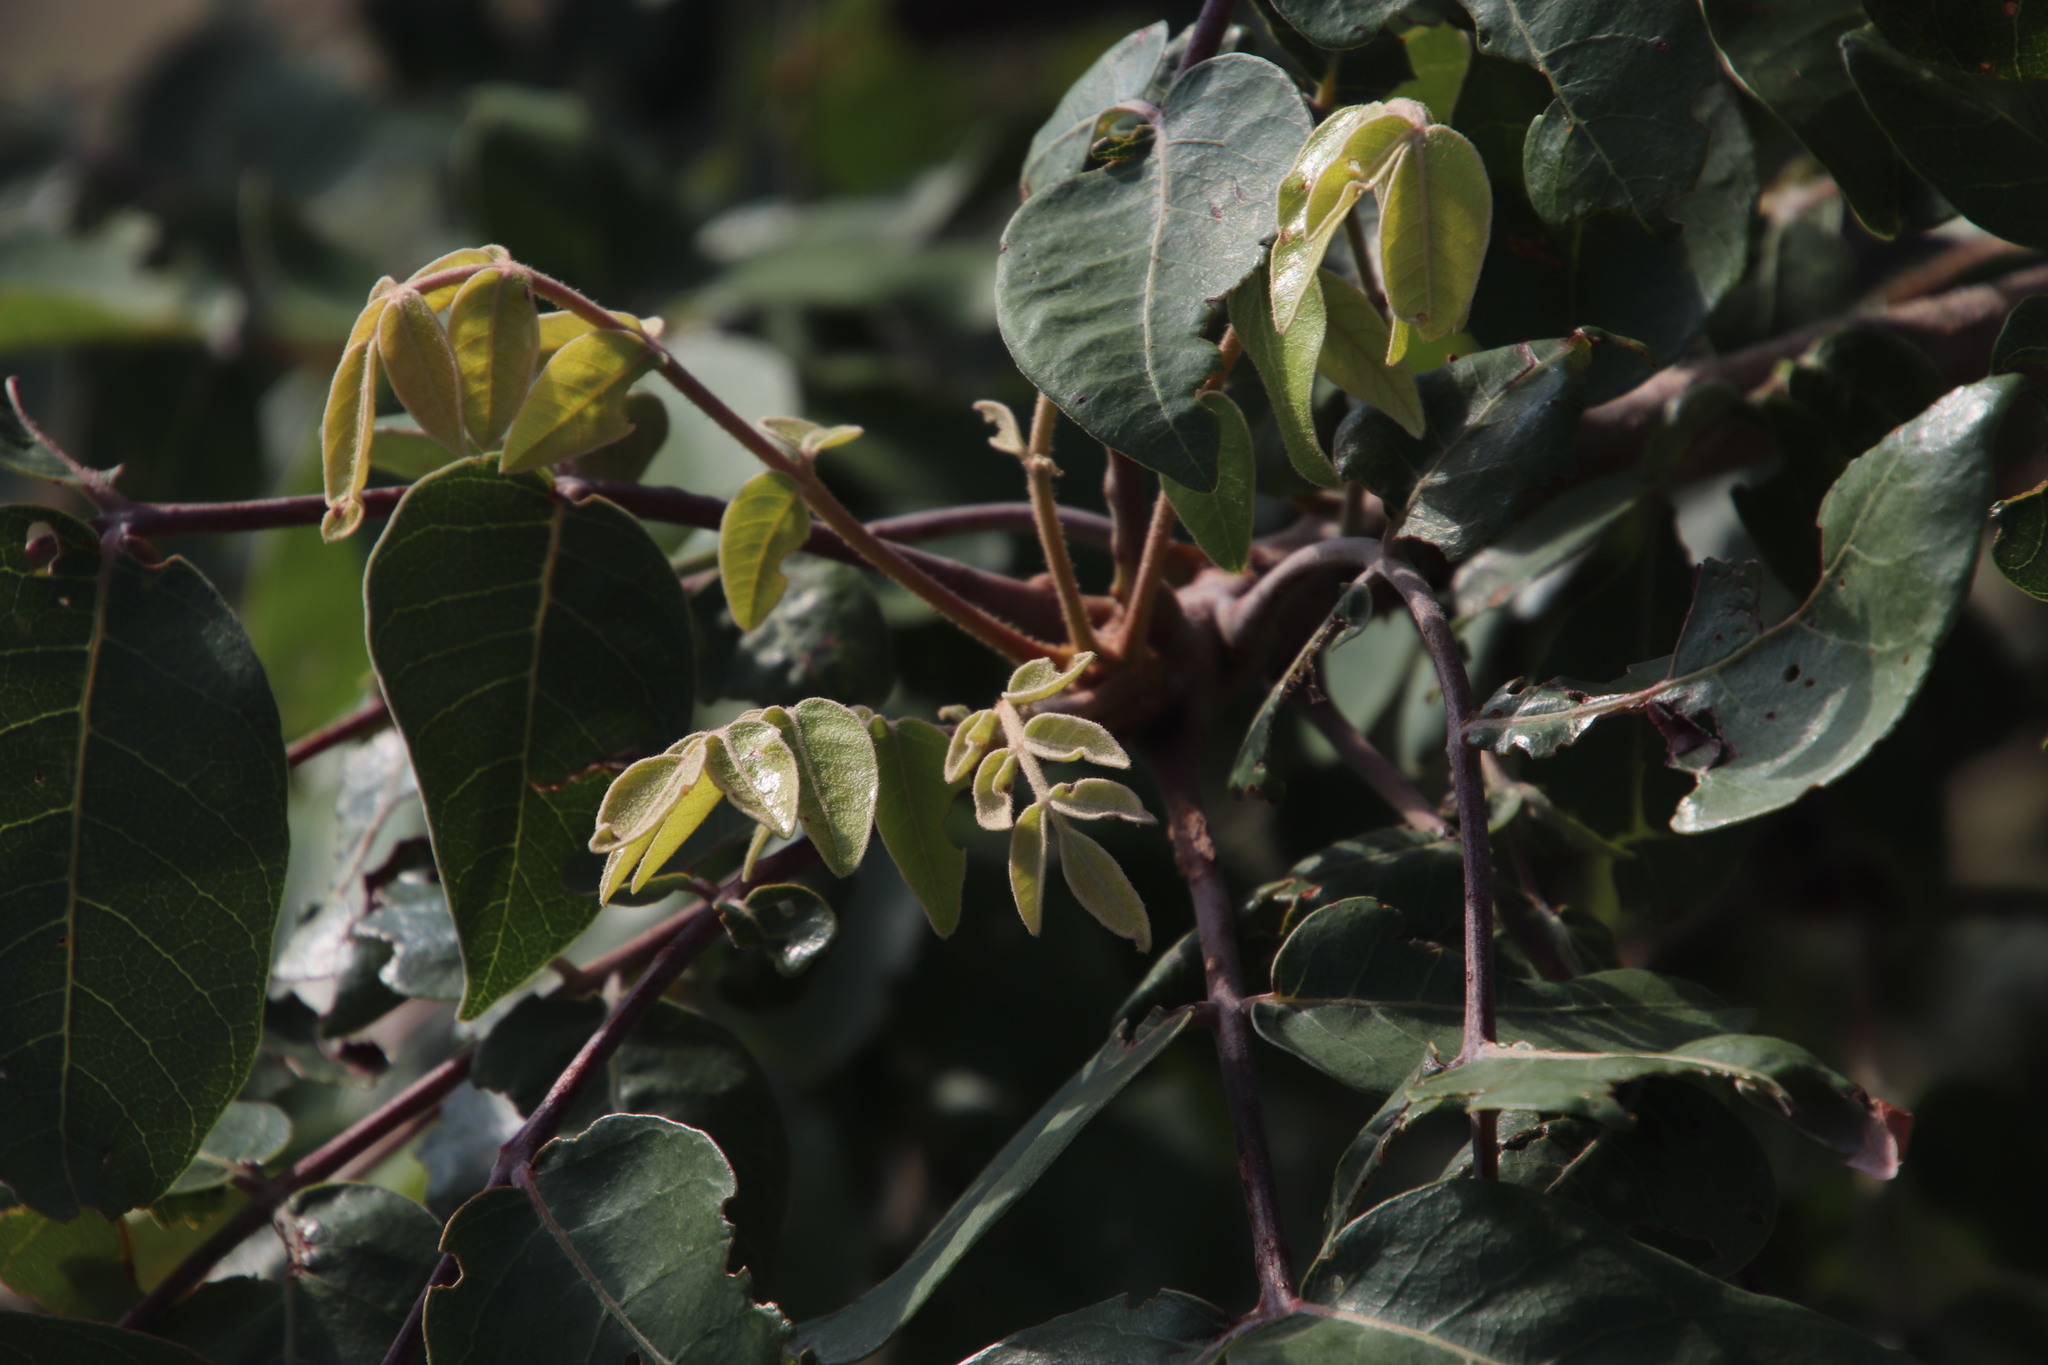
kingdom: Plantae
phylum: Tracheophyta
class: Magnoliopsida
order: Sapindales
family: Anacardiaceae
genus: Lannea
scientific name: Lannea discolor
